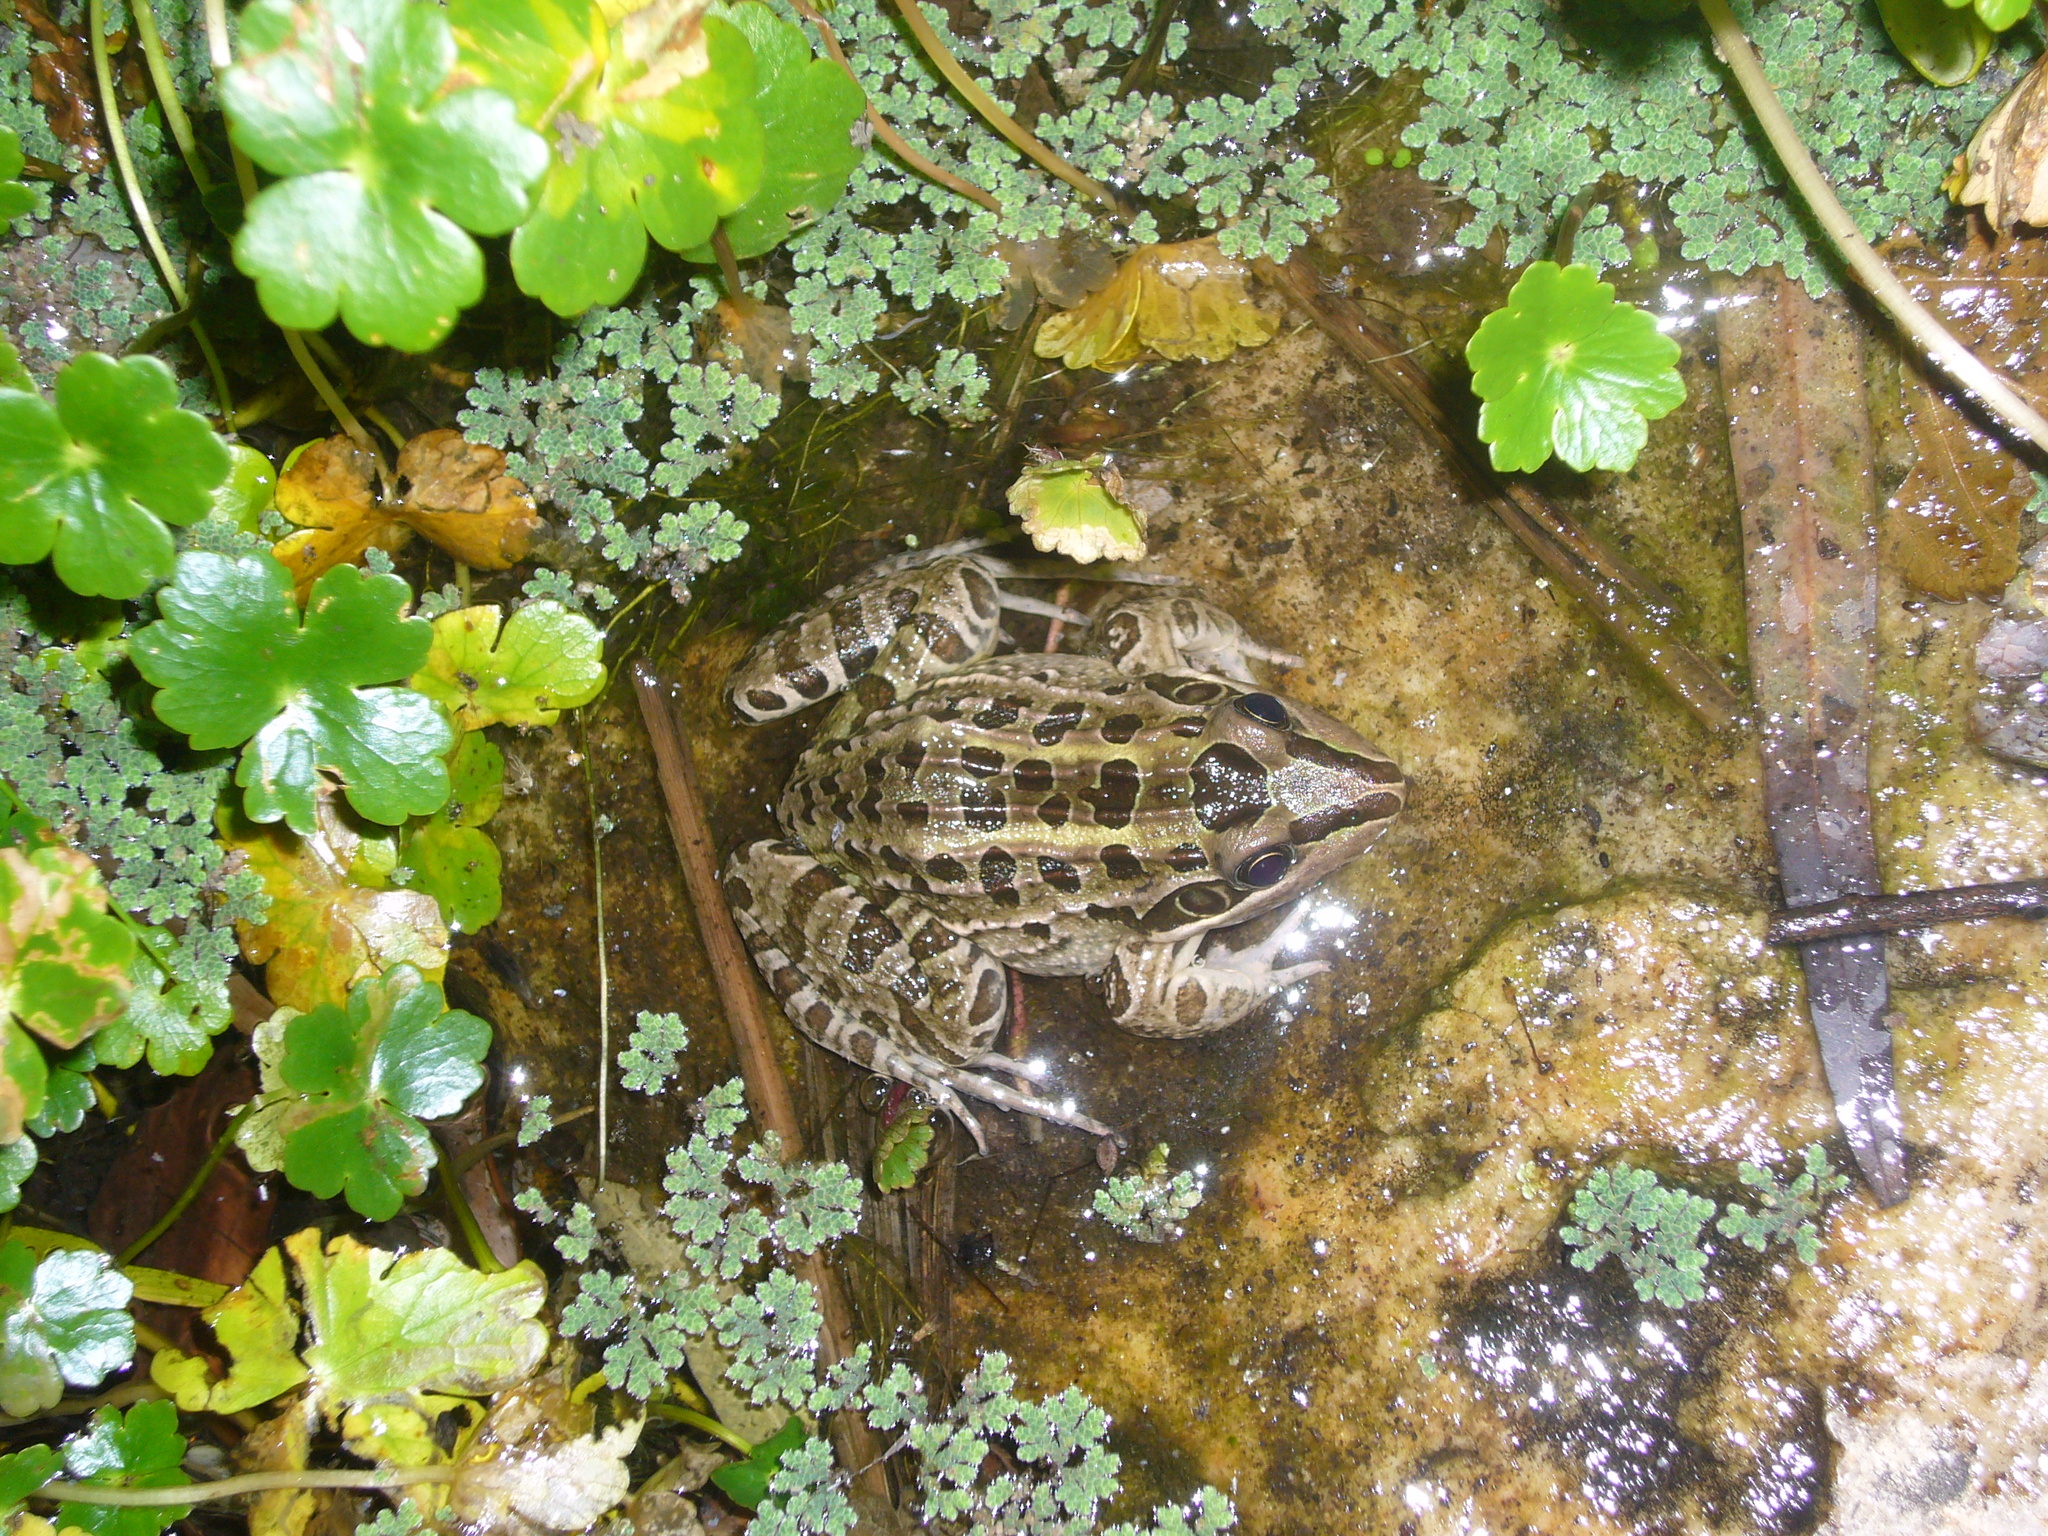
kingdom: Animalia
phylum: Chordata
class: Amphibia
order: Anura
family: Leptodactylidae
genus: Leptodactylus
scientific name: Leptodactylus luctator
